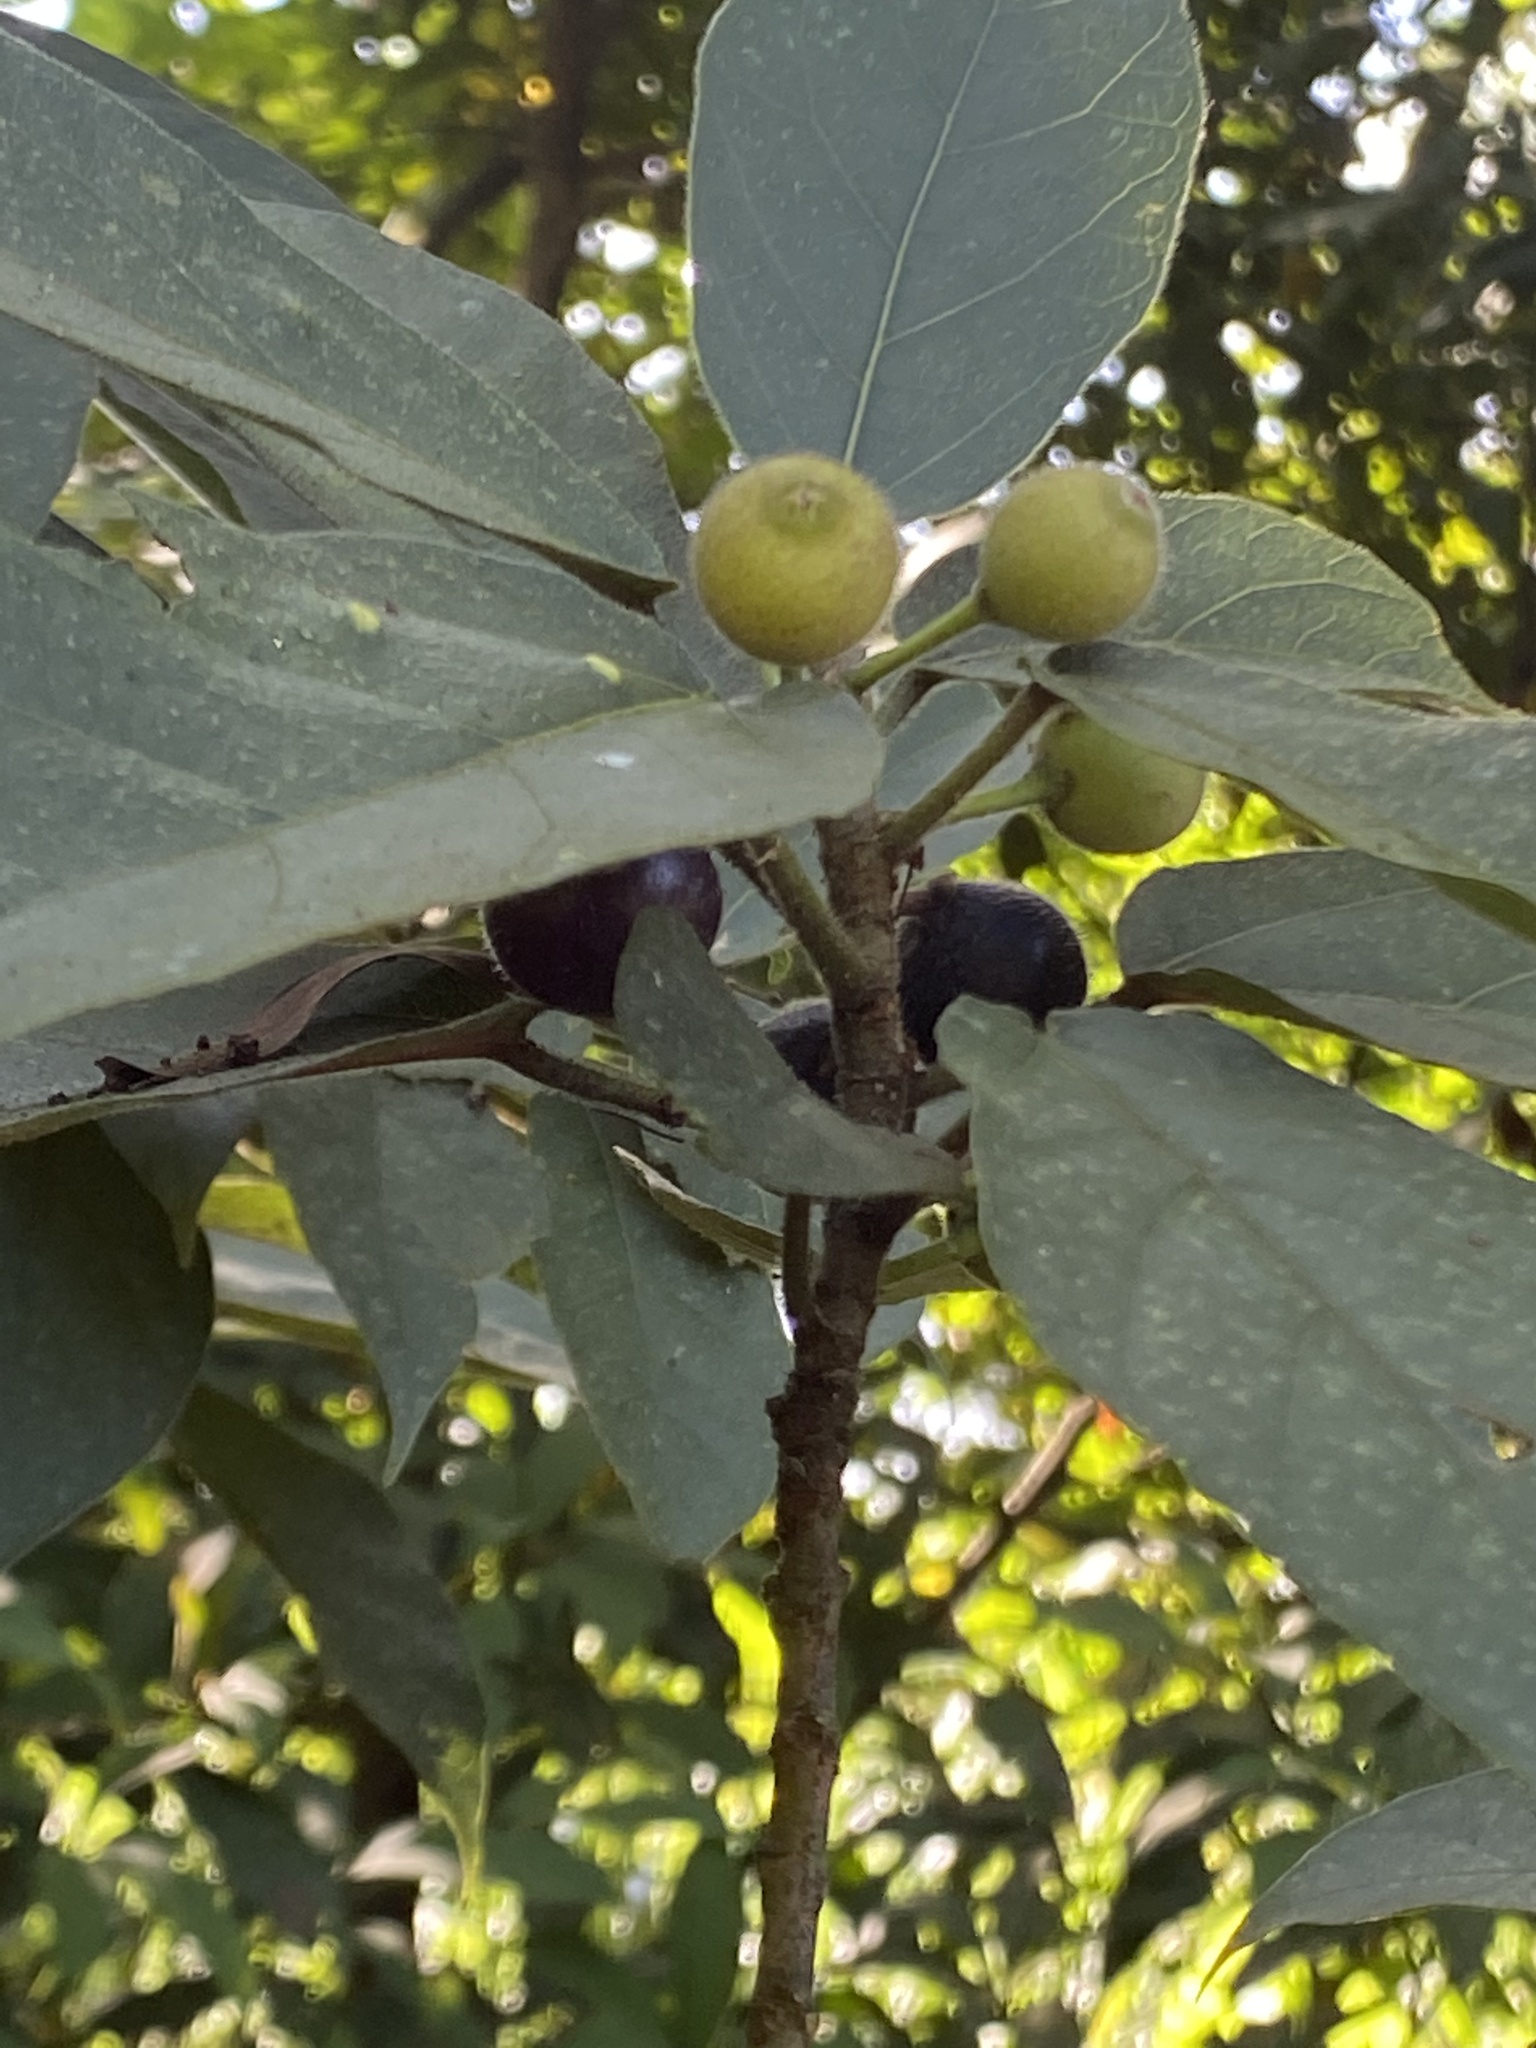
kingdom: Plantae
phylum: Tracheophyta
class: Magnoliopsida
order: Rosales
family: Moraceae
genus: Ficus
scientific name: Ficus erecta
